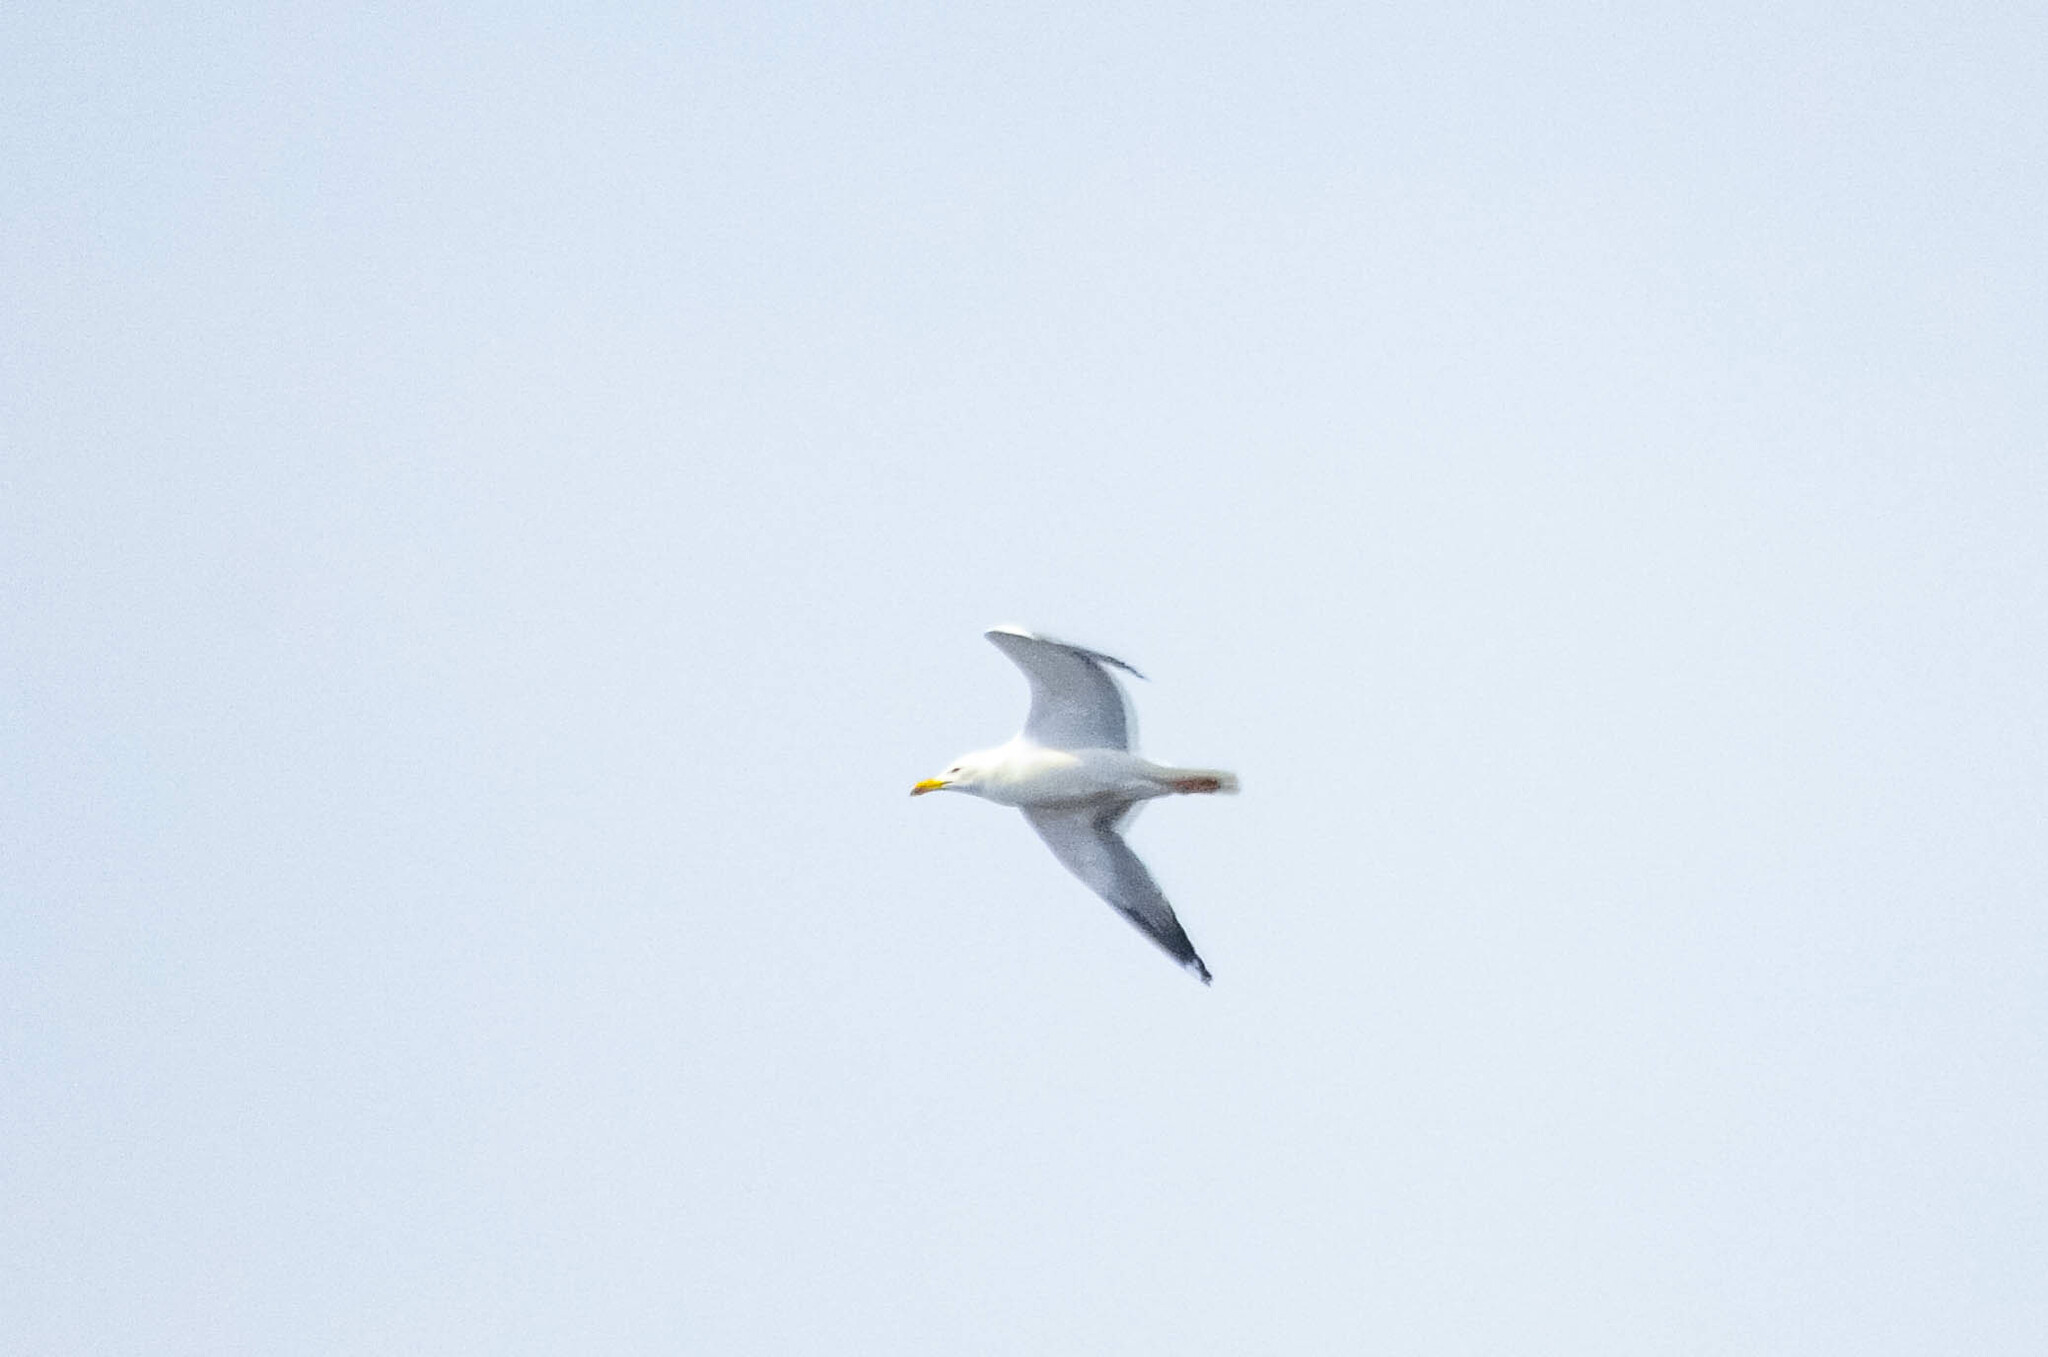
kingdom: Animalia
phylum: Chordata
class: Aves
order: Charadriiformes
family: Laridae
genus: Larus
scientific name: Larus fuscus
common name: Lesser black-backed gull
